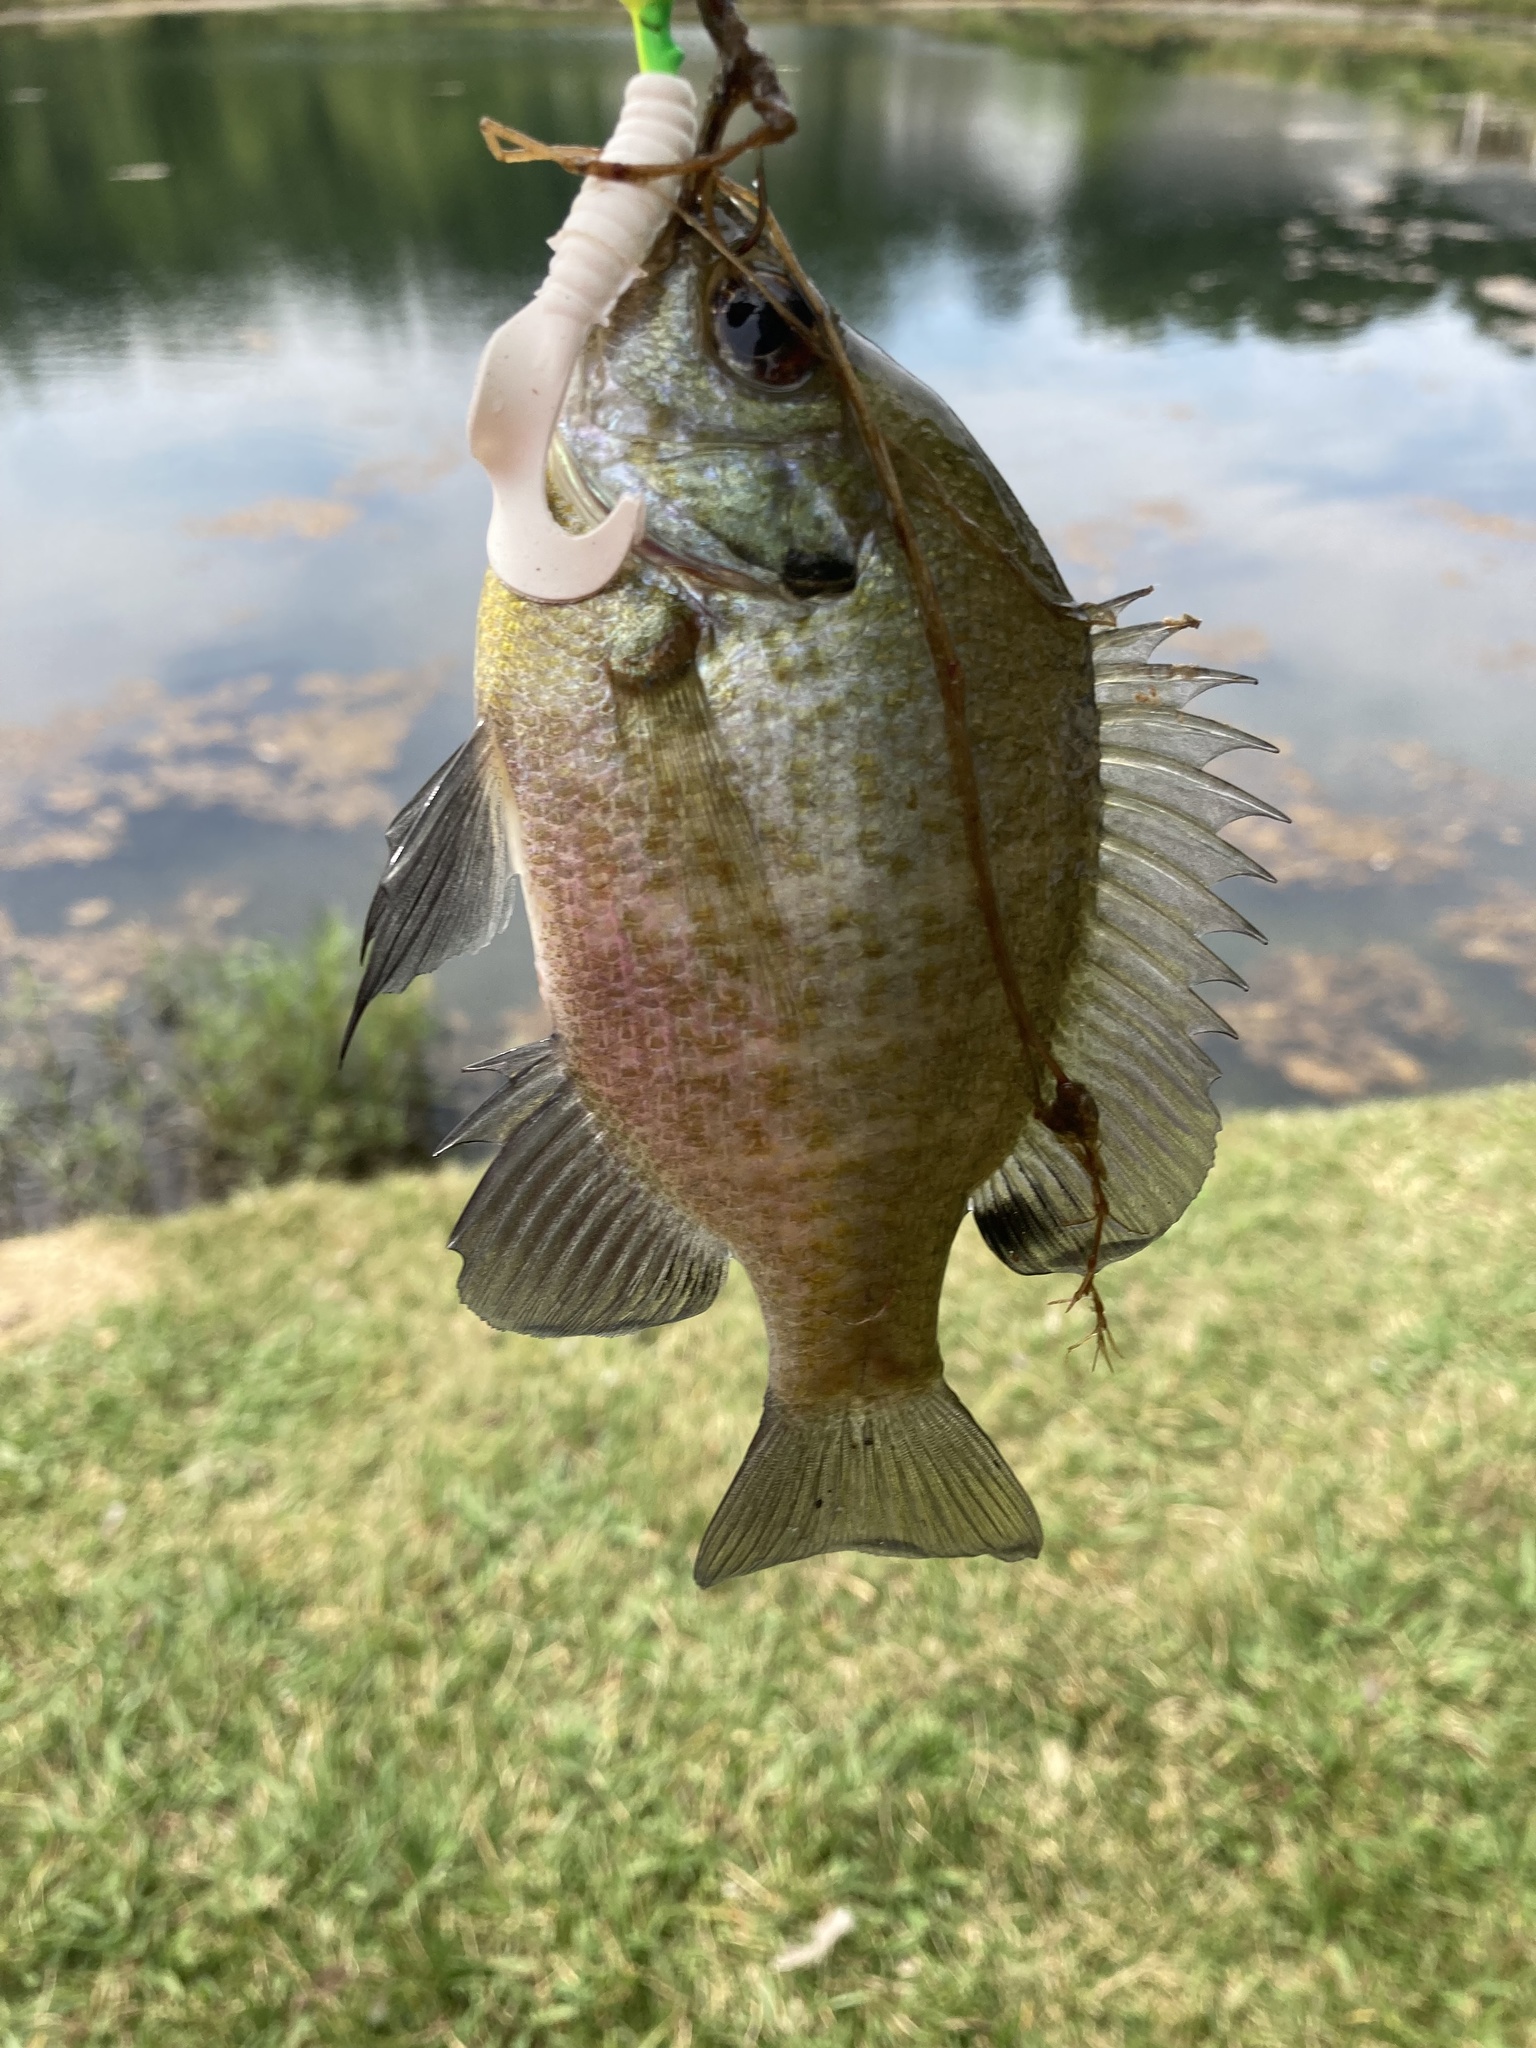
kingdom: Animalia
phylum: Chordata
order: Perciformes
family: Centrarchidae
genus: Lepomis
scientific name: Lepomis macrochirus
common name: Bluegill
